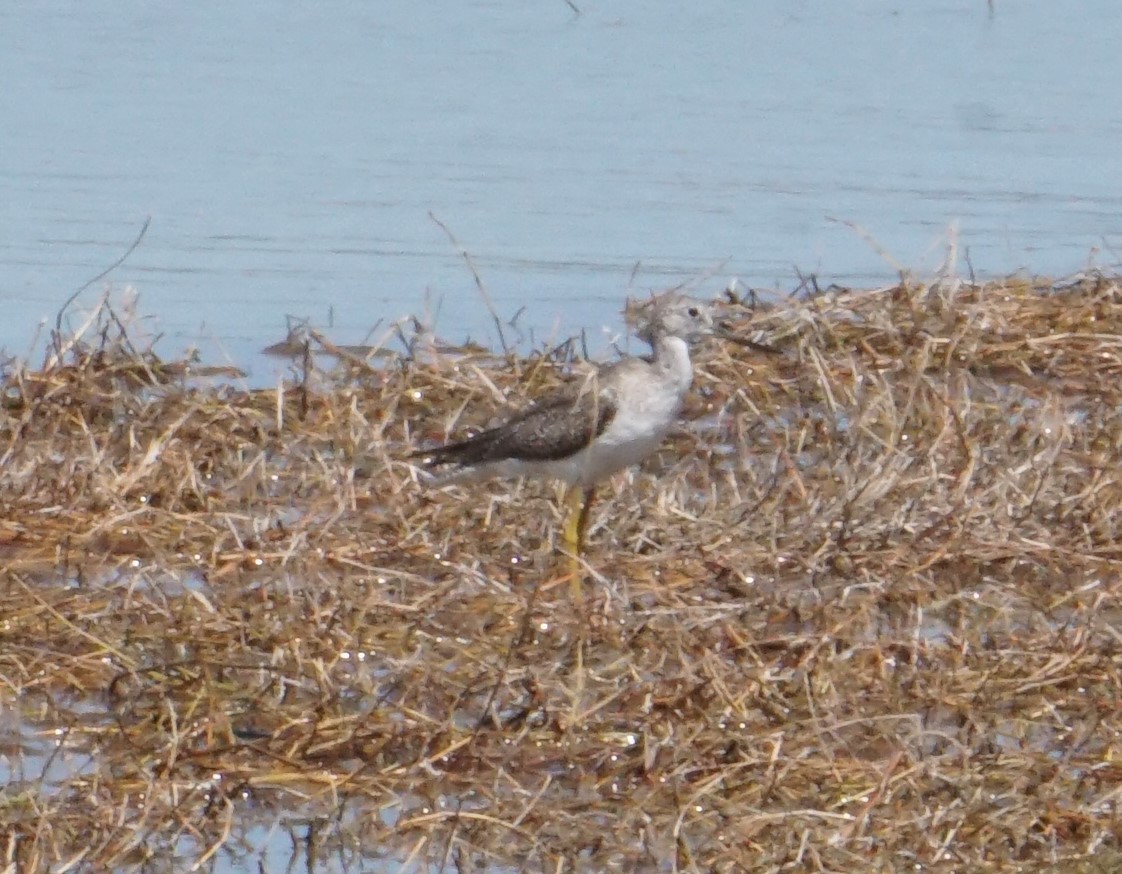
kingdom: Animalia
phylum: Chordata
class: Aves
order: Charadriiformes
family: Scolopacidae
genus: Tringa
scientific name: Tringa melanoleuca
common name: Greater yellowlegs
